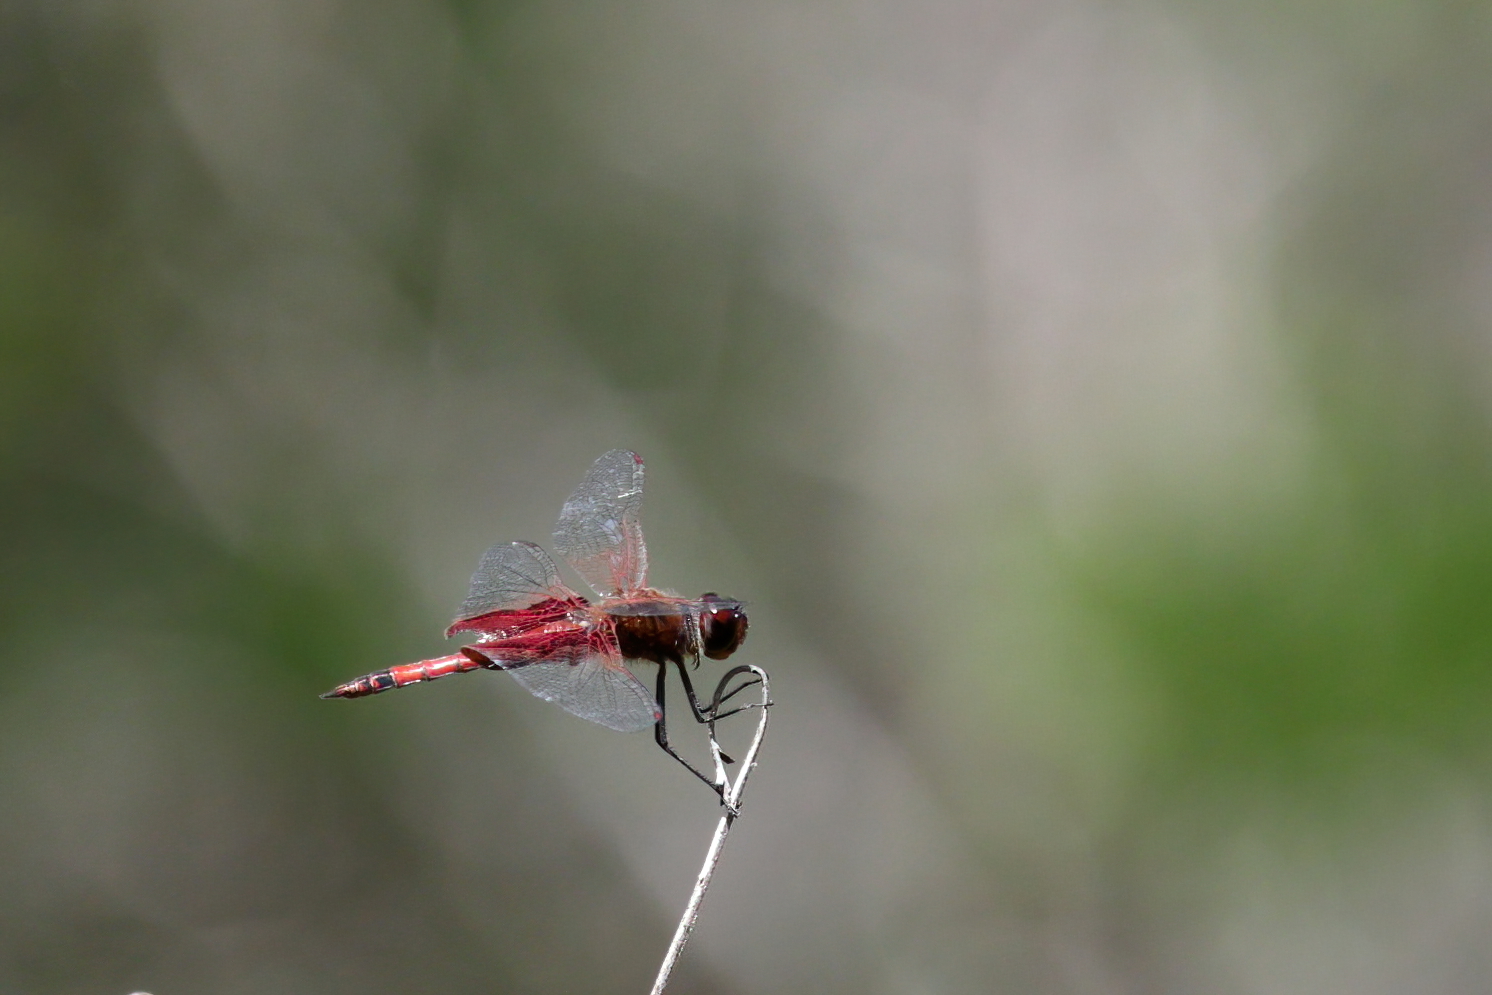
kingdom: Animalia
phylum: Arthropoda
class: Insecta
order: Odonata
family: Libellulidae
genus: Tramea
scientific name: Tramea carolina
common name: Carolina saddlebags
